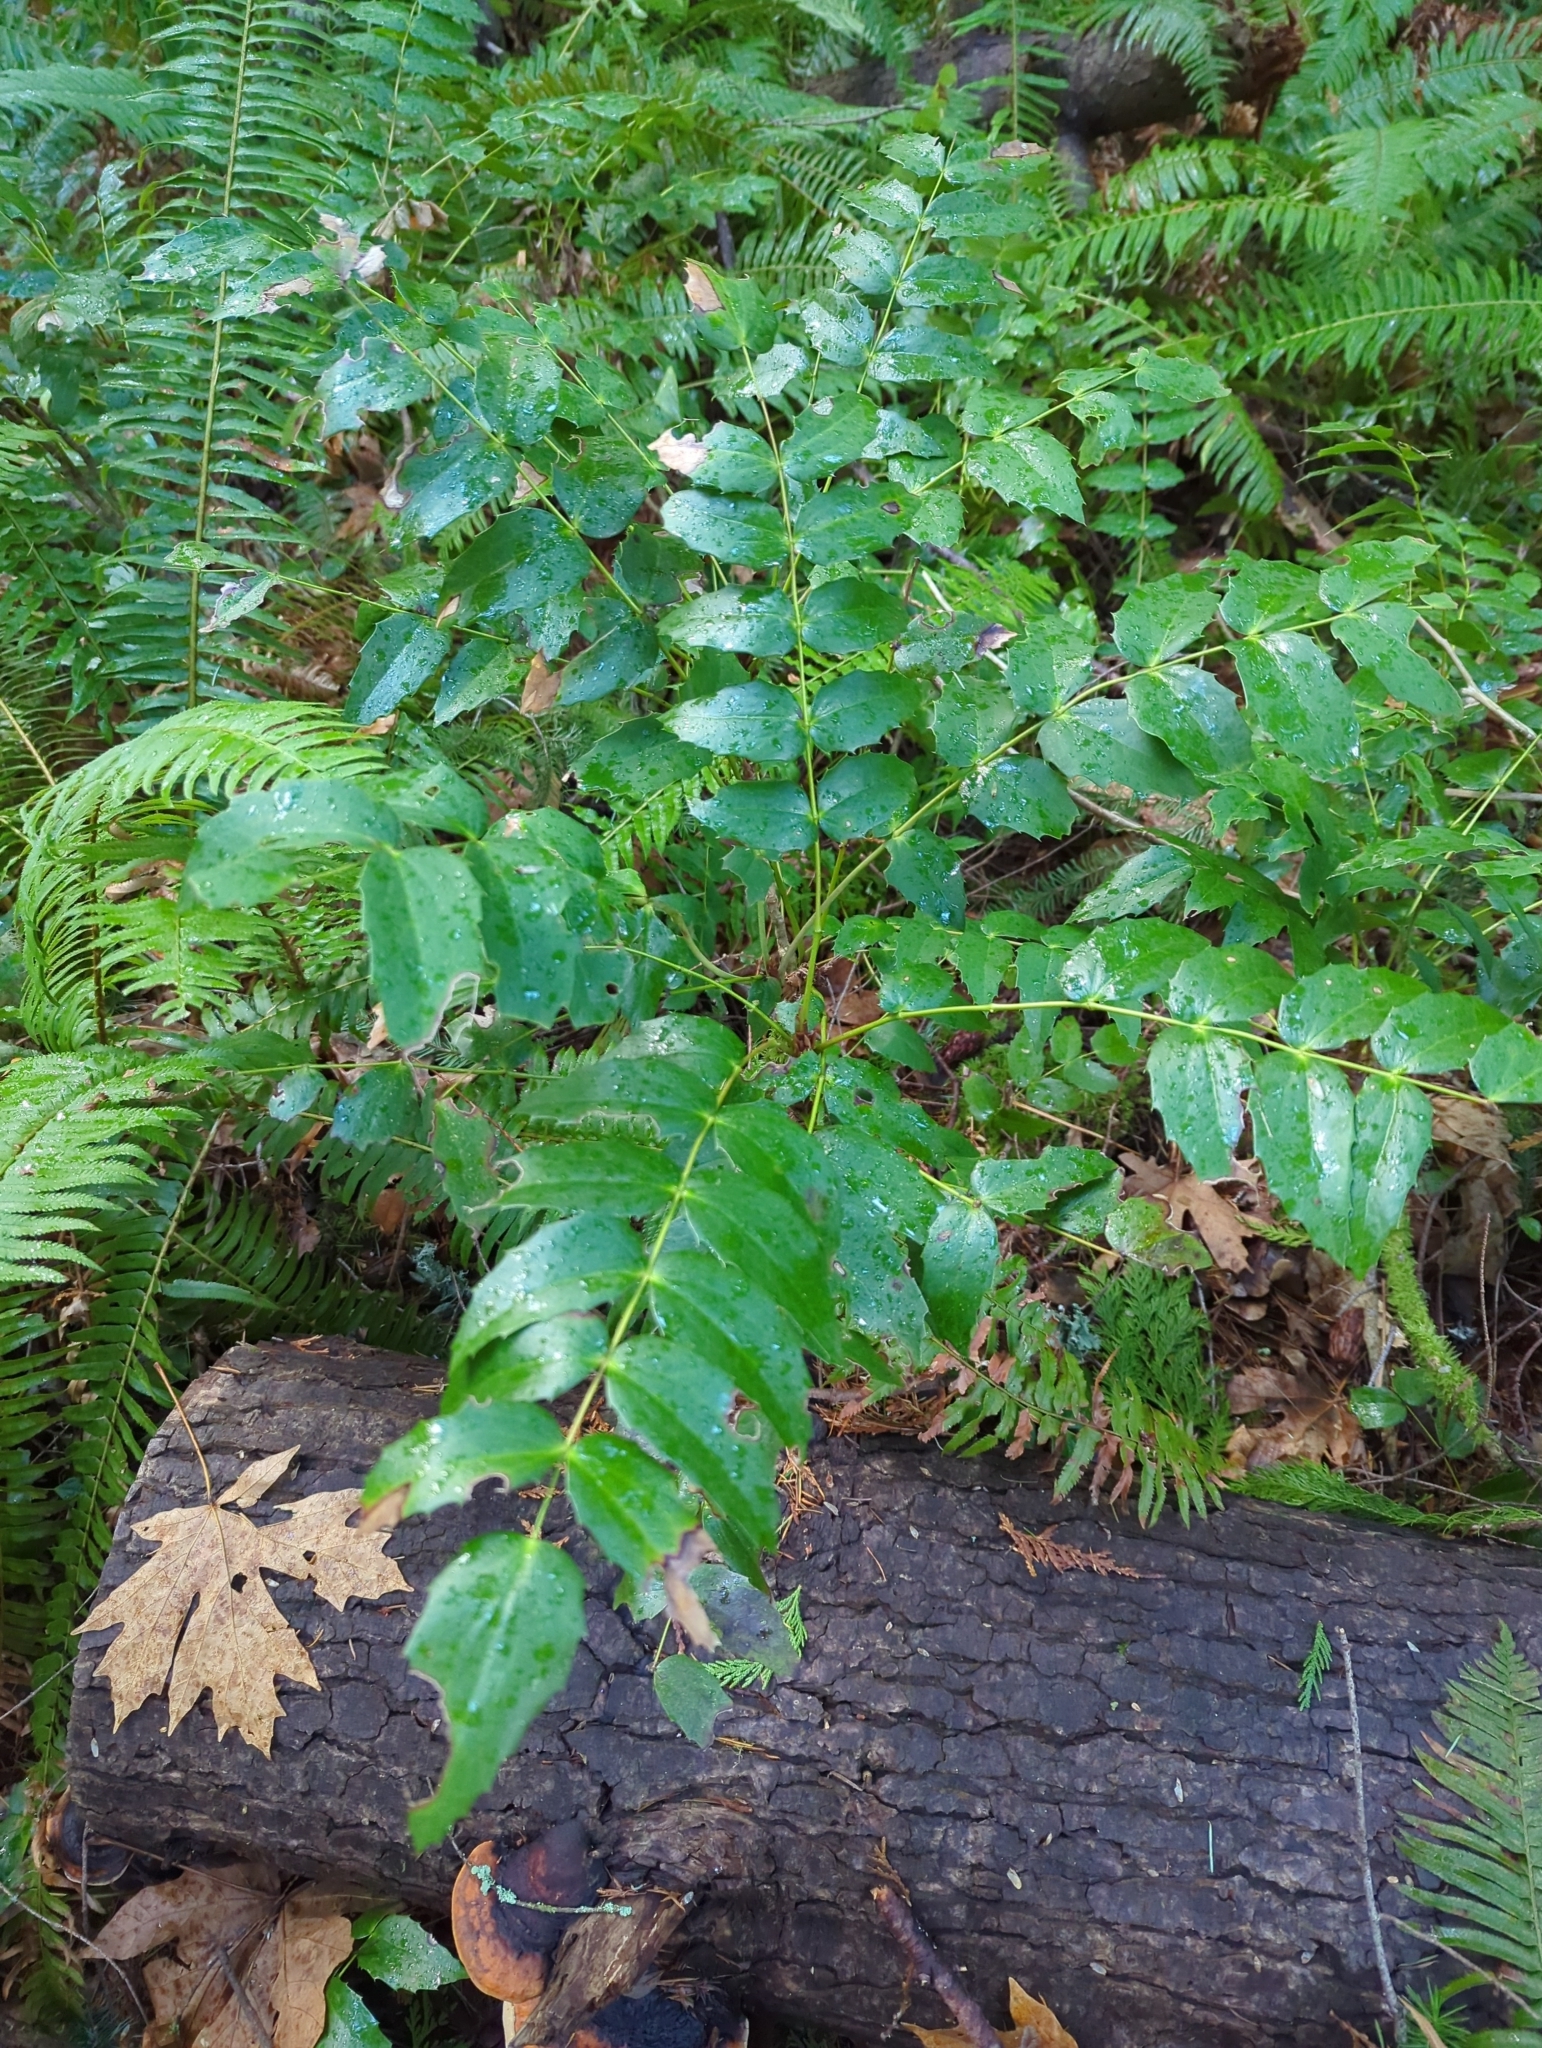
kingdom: Plantae
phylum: Tracheophyta
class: Magnoliopsida
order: Ranunculales
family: Berberidaceae
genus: Mahonia
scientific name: Mahonia nervosa
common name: Cascade oregon-grape
